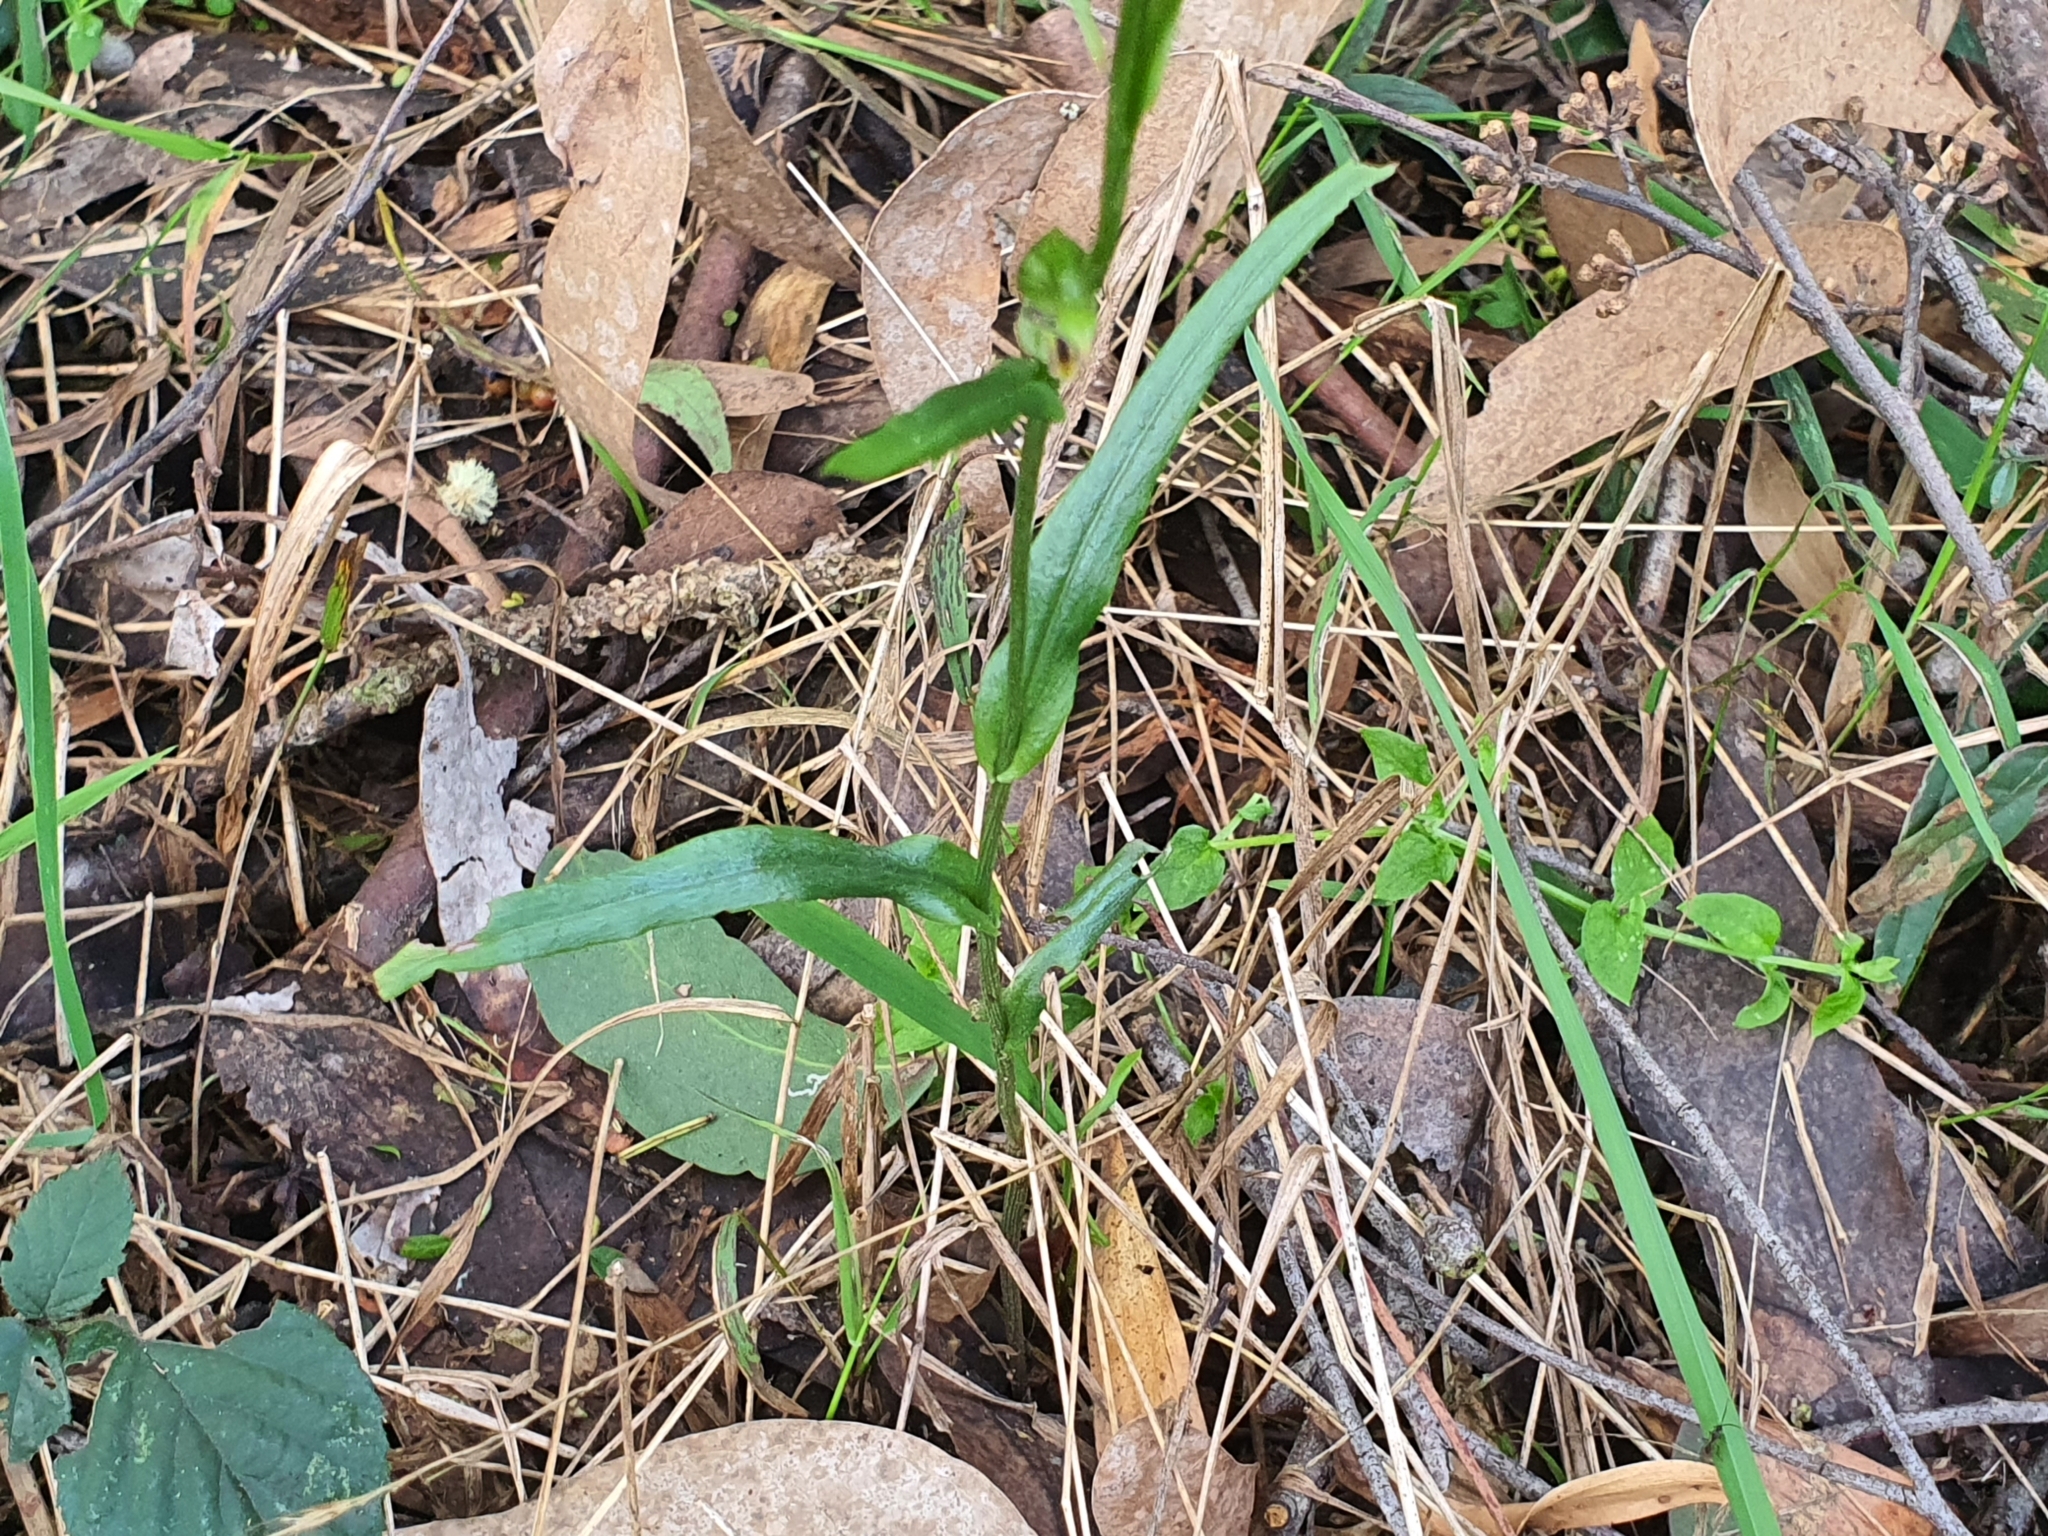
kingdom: Plantae
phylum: Tracheophyta
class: Liliopsida
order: Asparagales
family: Orchidaceae
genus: Pterostylis
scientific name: Pterostylis melagramma
